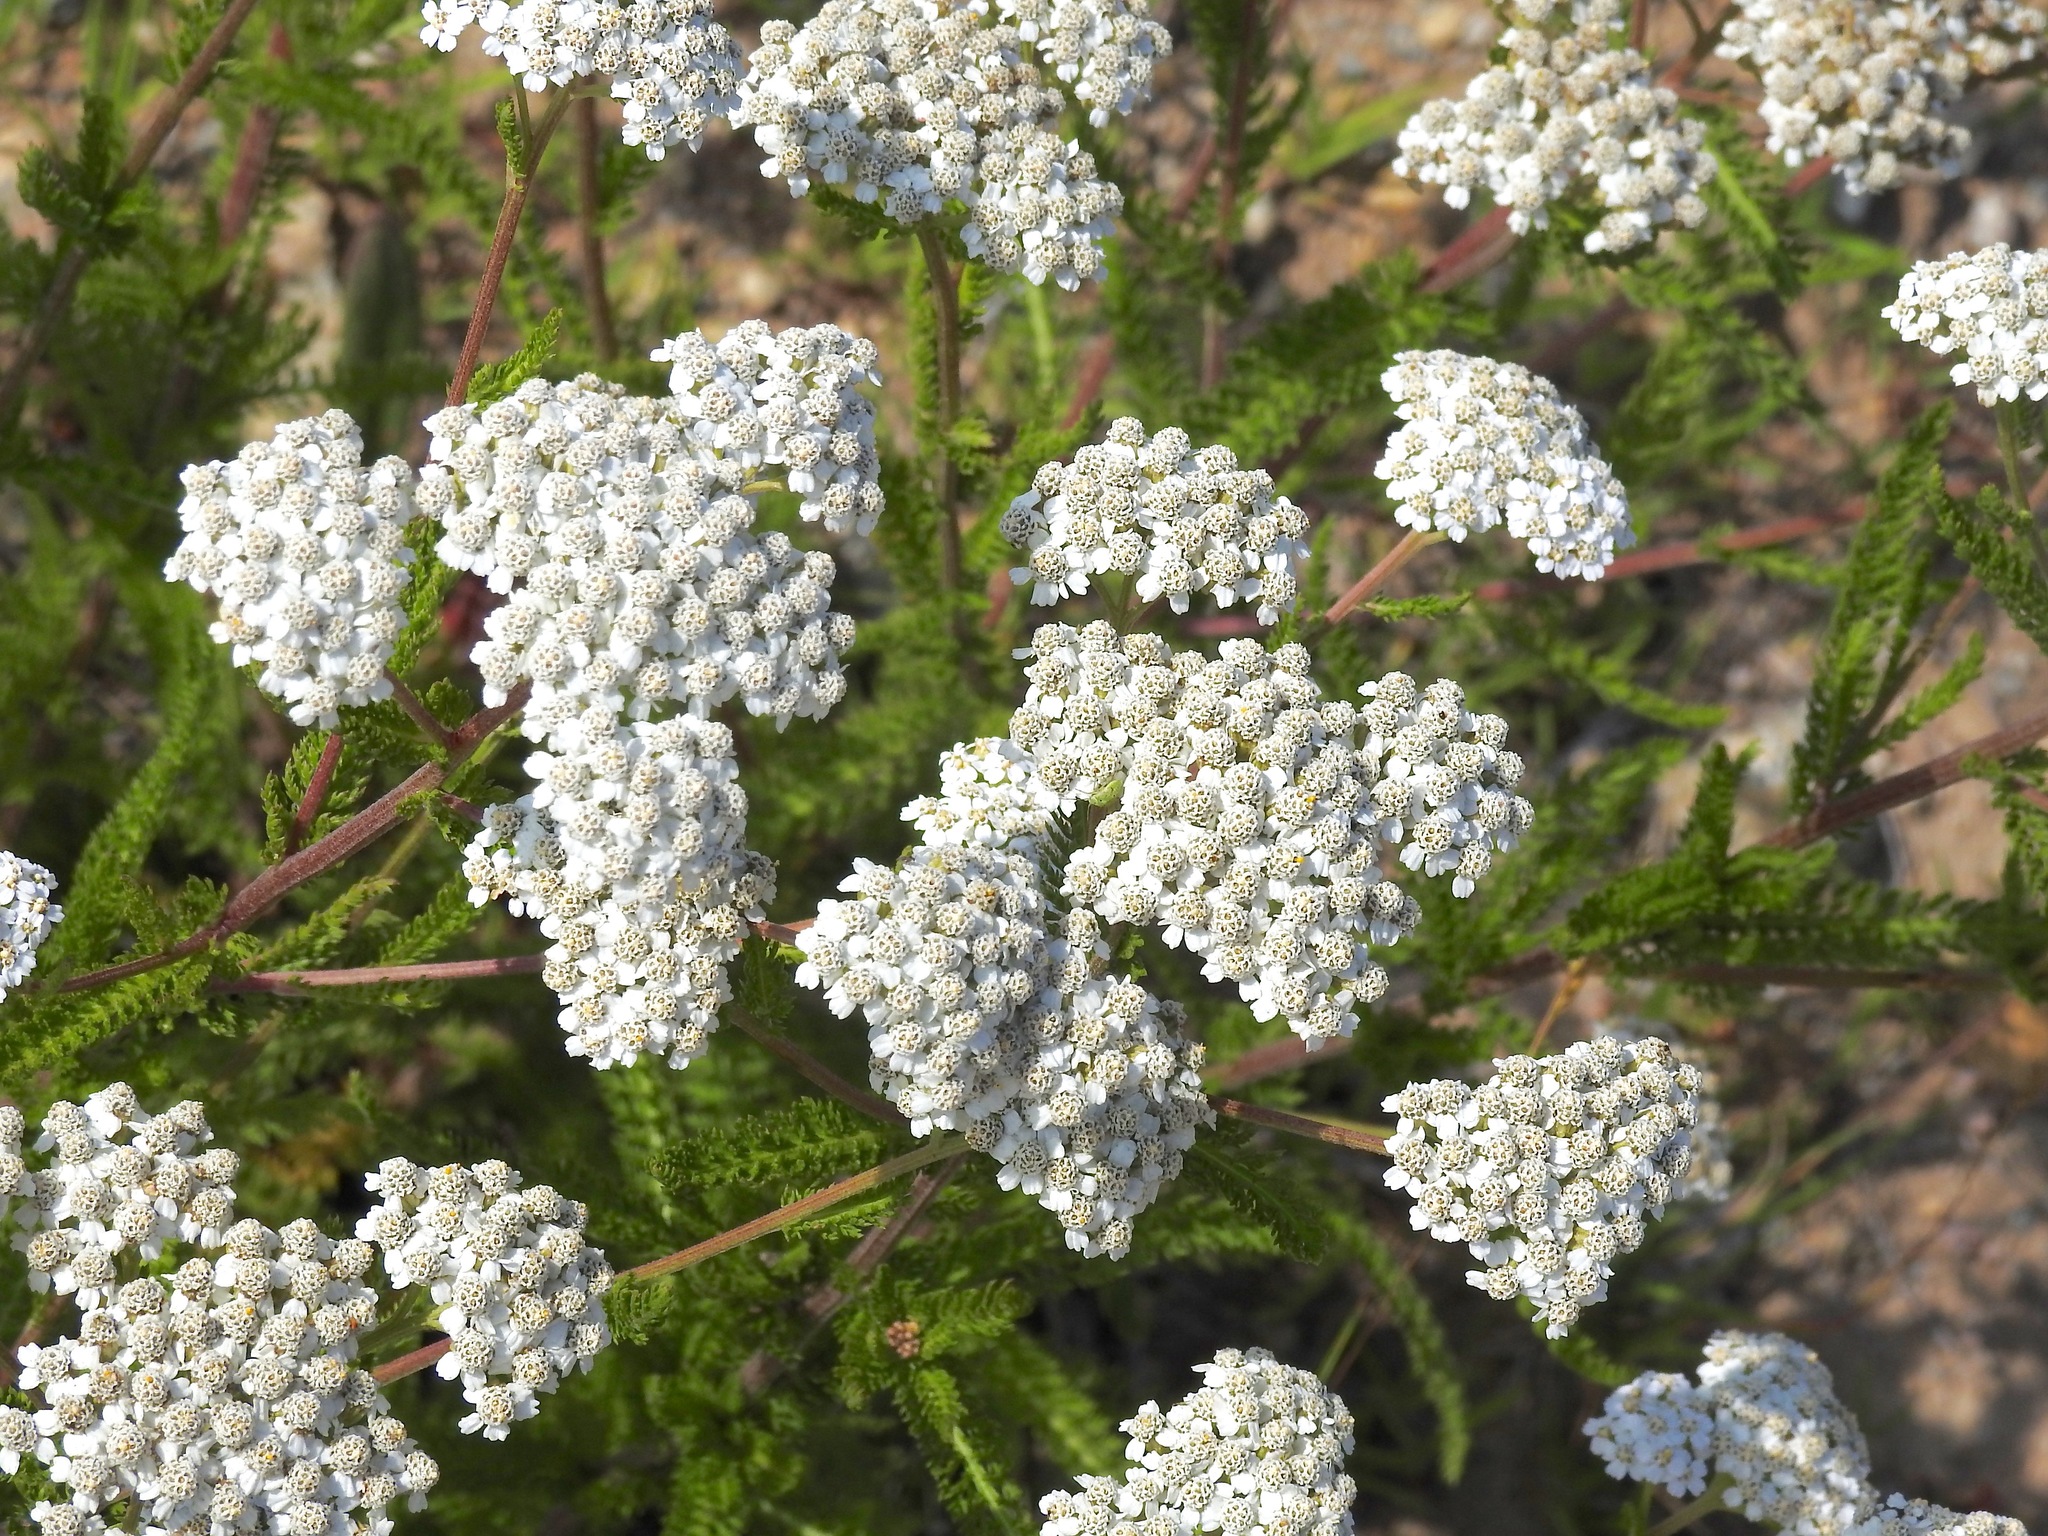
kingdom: Plantae
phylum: Tracheophyta
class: Magnoliopsida
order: Asterales
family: Asteraceae
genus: Achillea
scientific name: Achillea millefolium
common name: Yarrow
